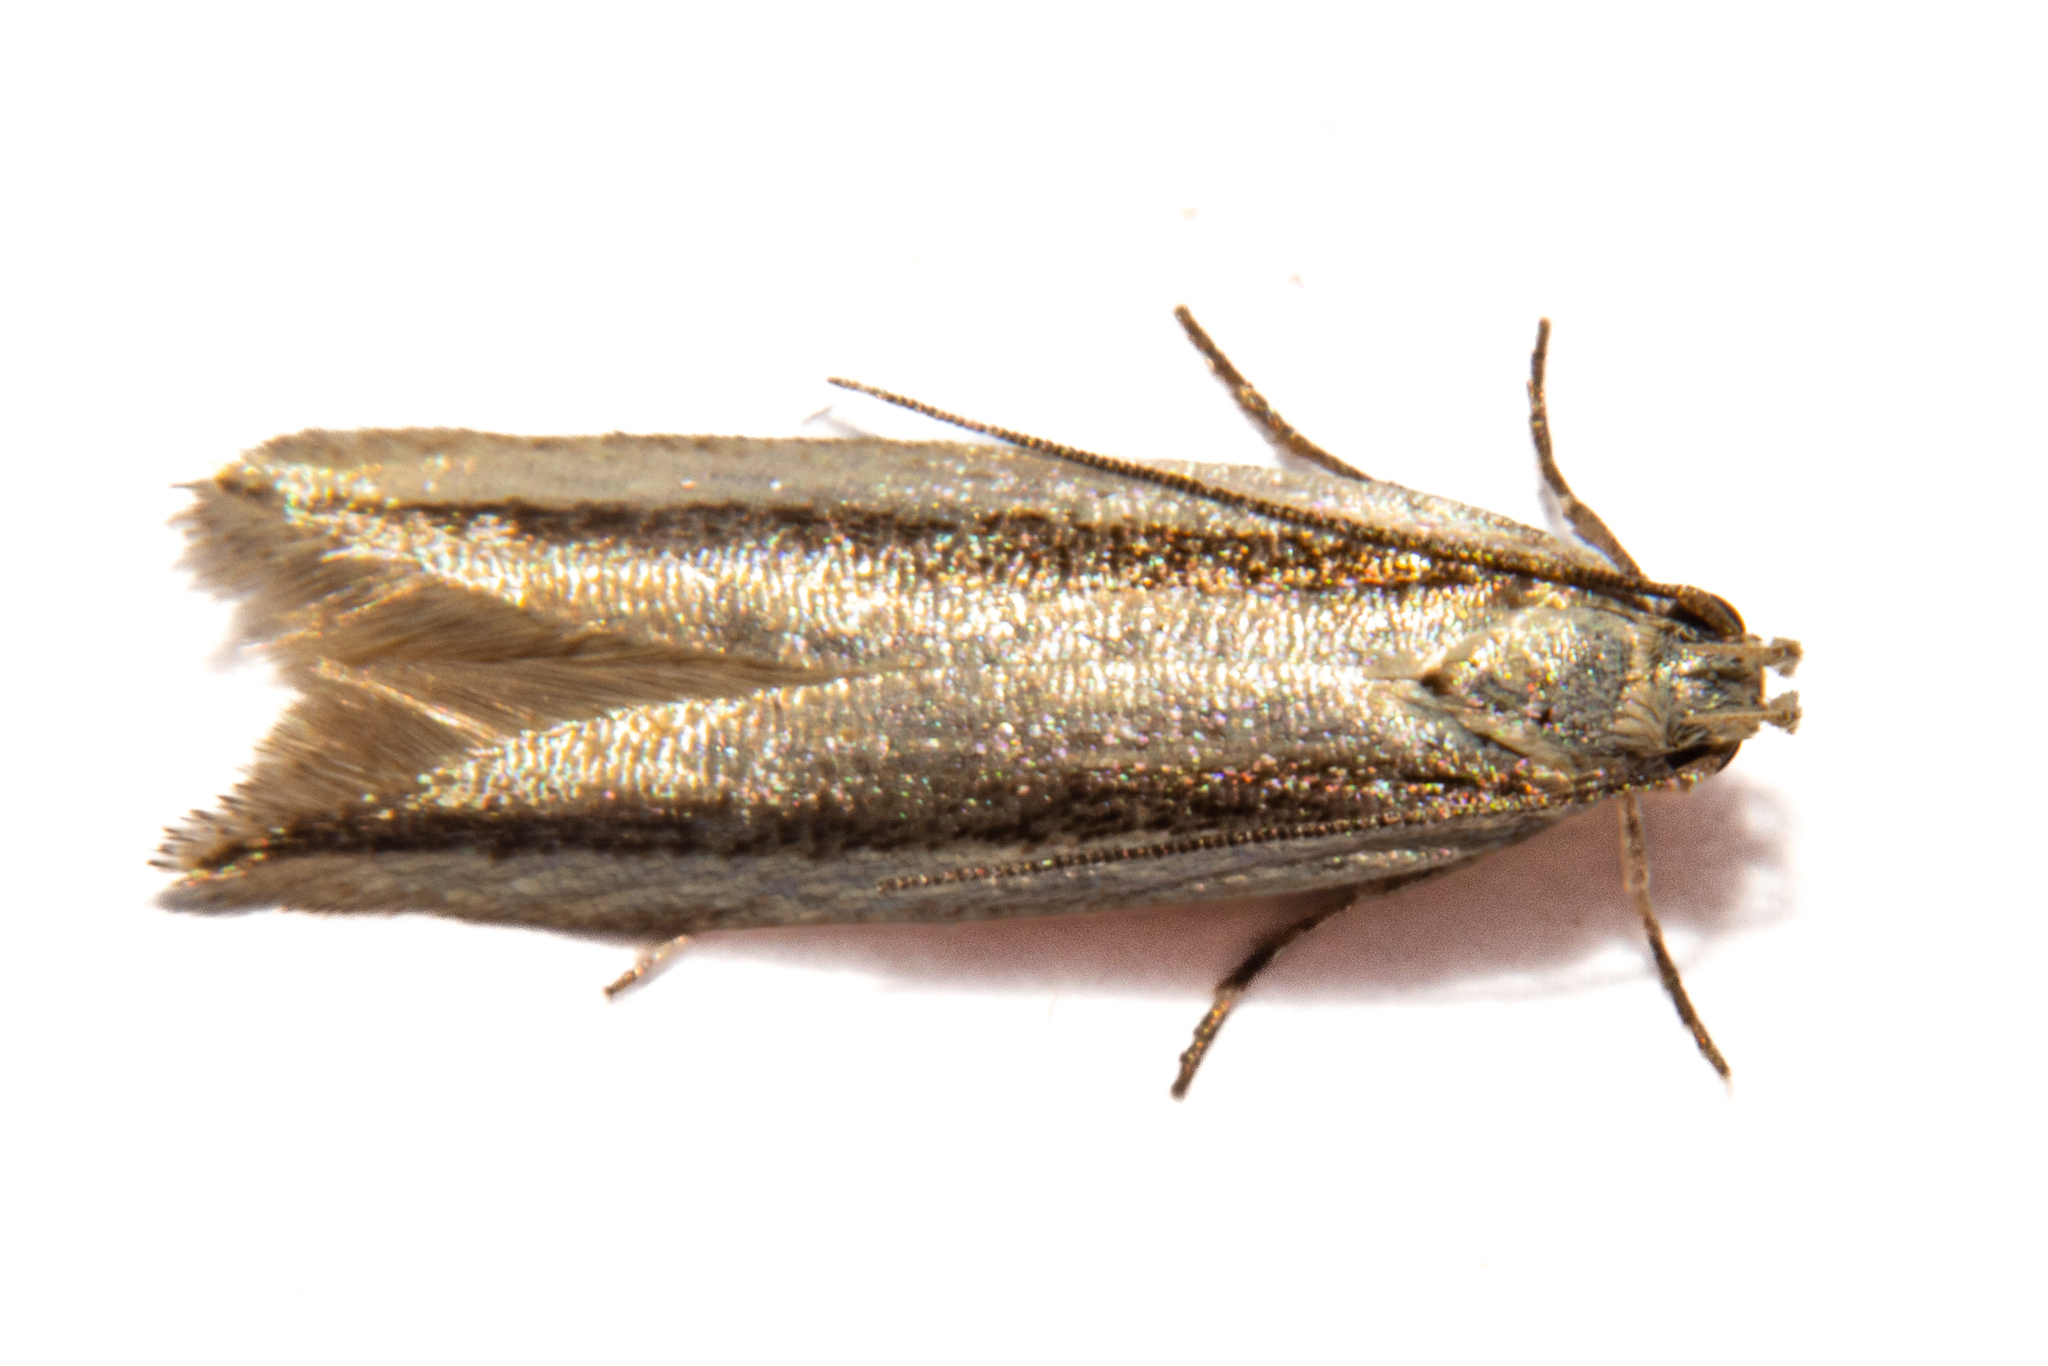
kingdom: Animalia
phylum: Arthropoda
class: Insecta
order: Lepidoptera
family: Gelechiidae
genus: Kiwaia
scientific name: Kiwaia monophragma
